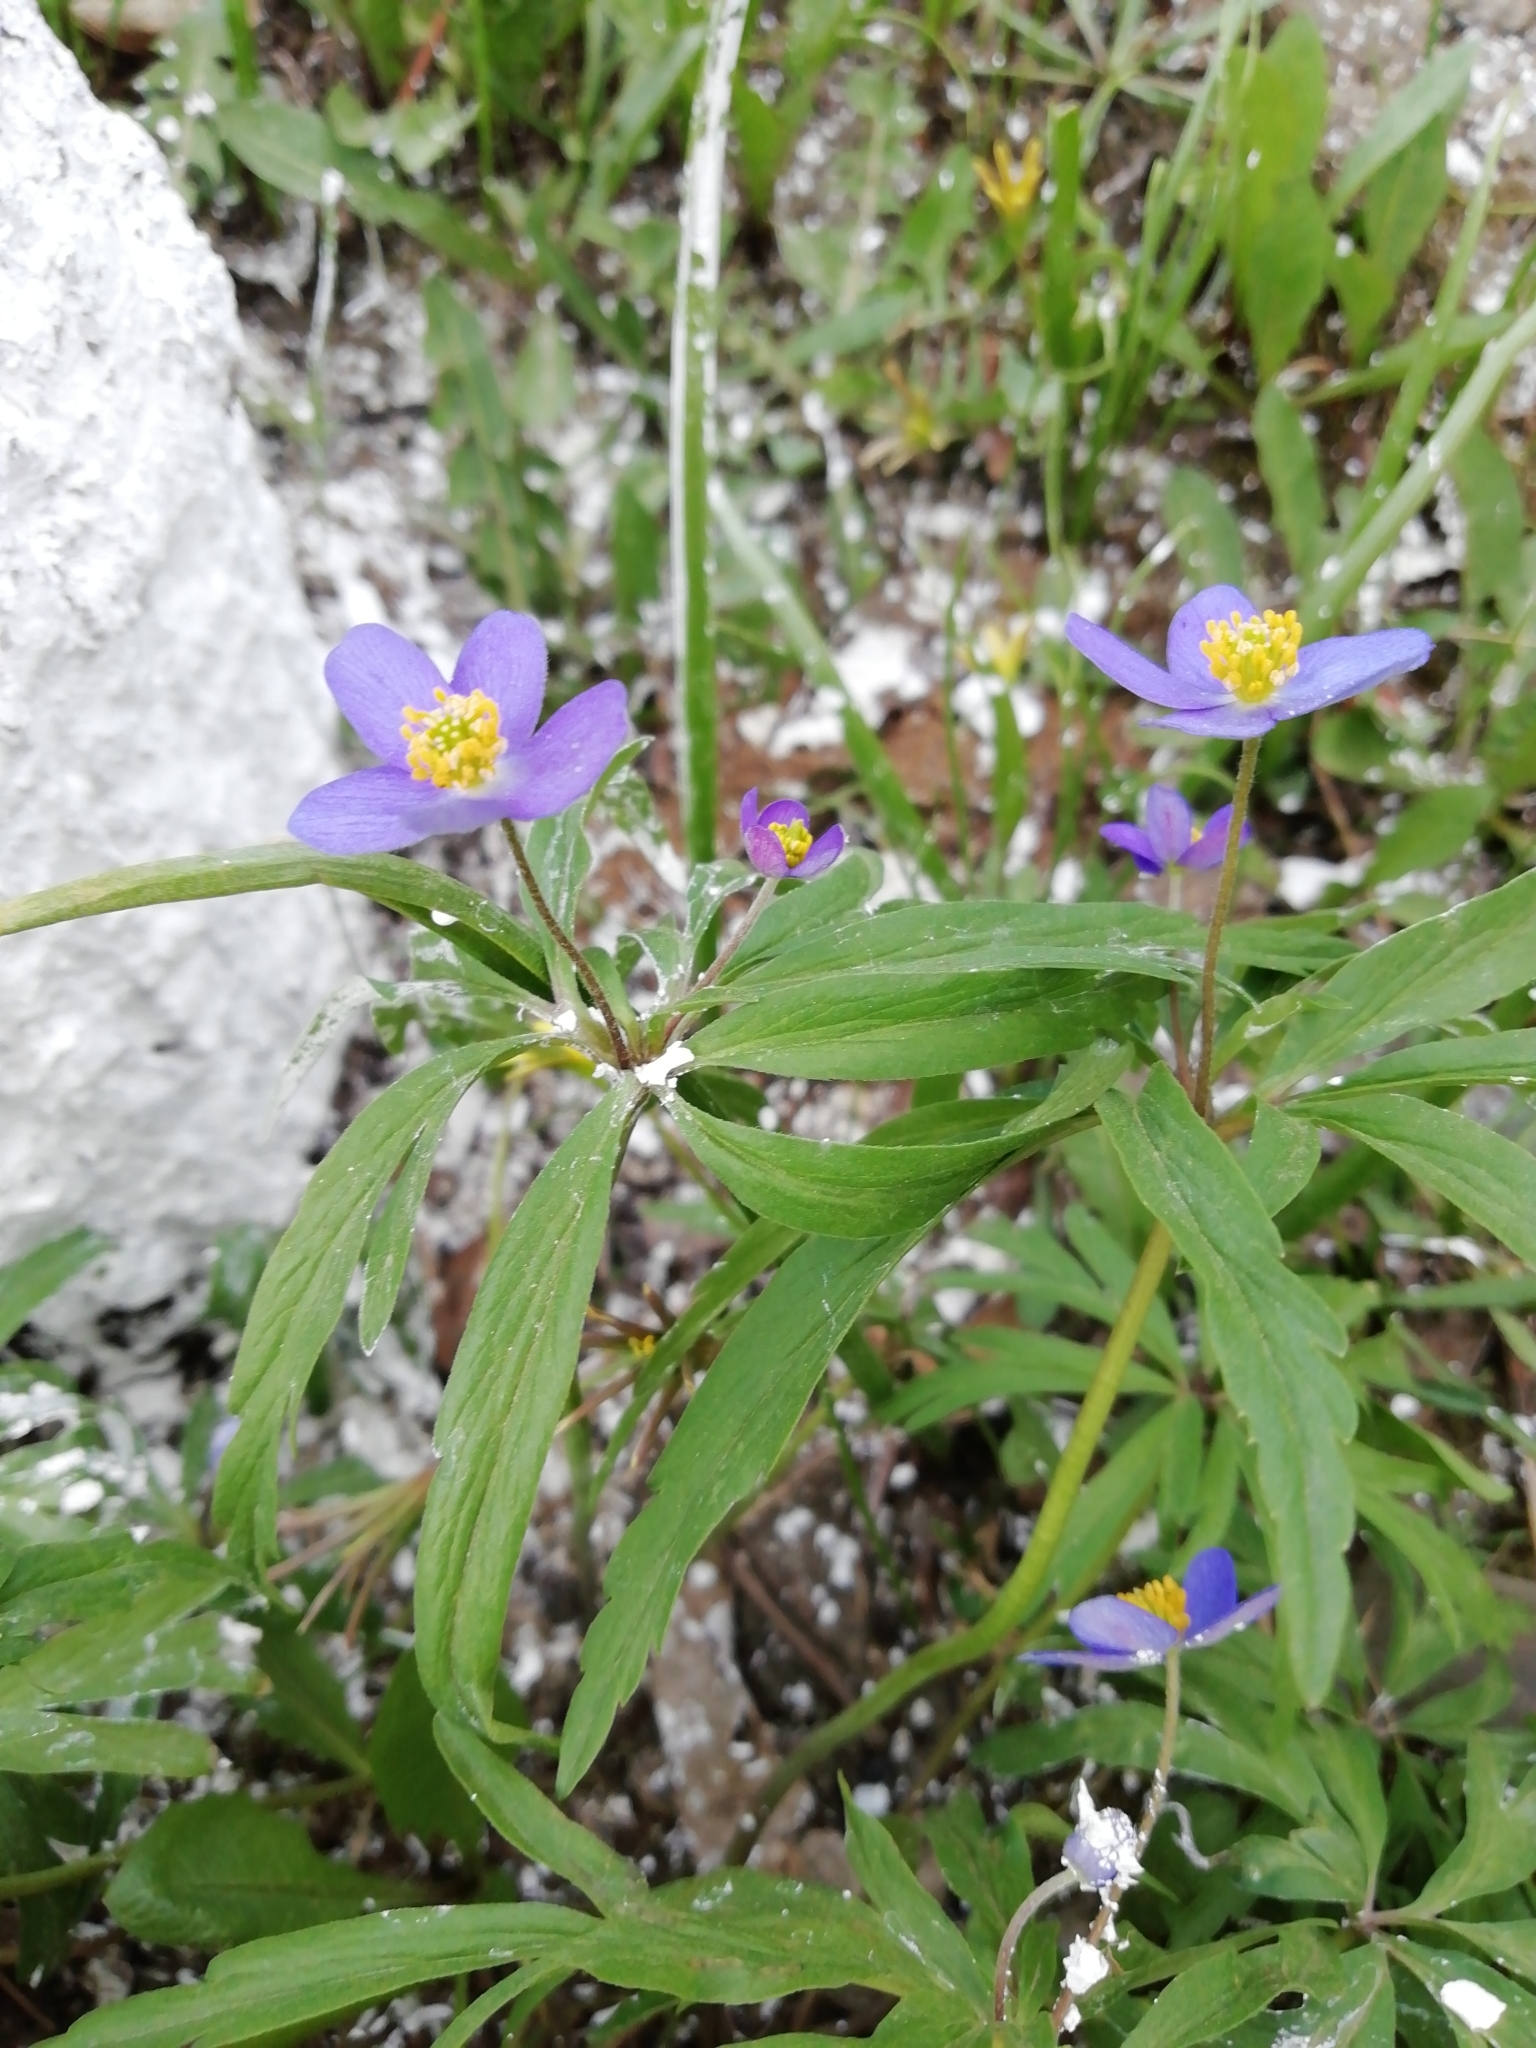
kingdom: Plantae
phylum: Tracheophyta
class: Magnoliopsida
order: Ranunculales
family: Ranunculaceae
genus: Anemone
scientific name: Anemone caerulea
